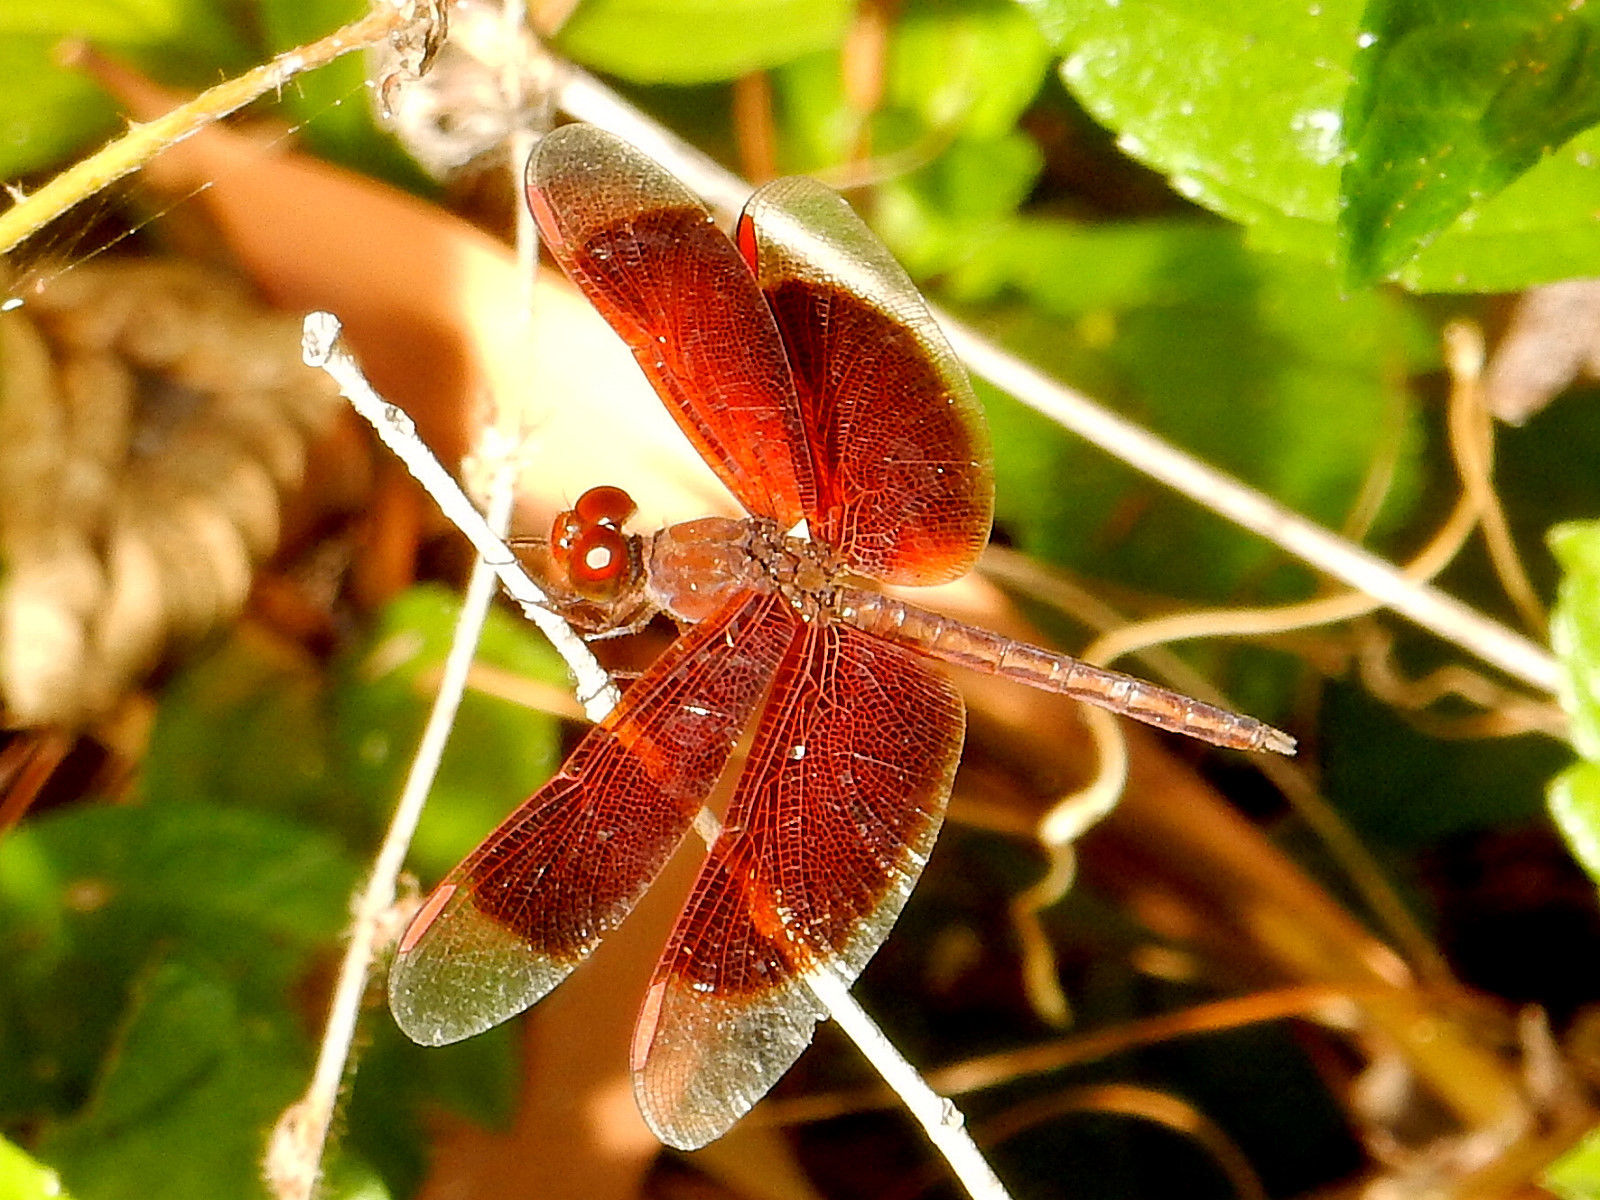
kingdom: Animalia
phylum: Arthropoda
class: Insecta
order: Odonata
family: Libellulidae
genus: Neurothemis
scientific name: Neurothemis stigmatizans
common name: Painted grasshawk
